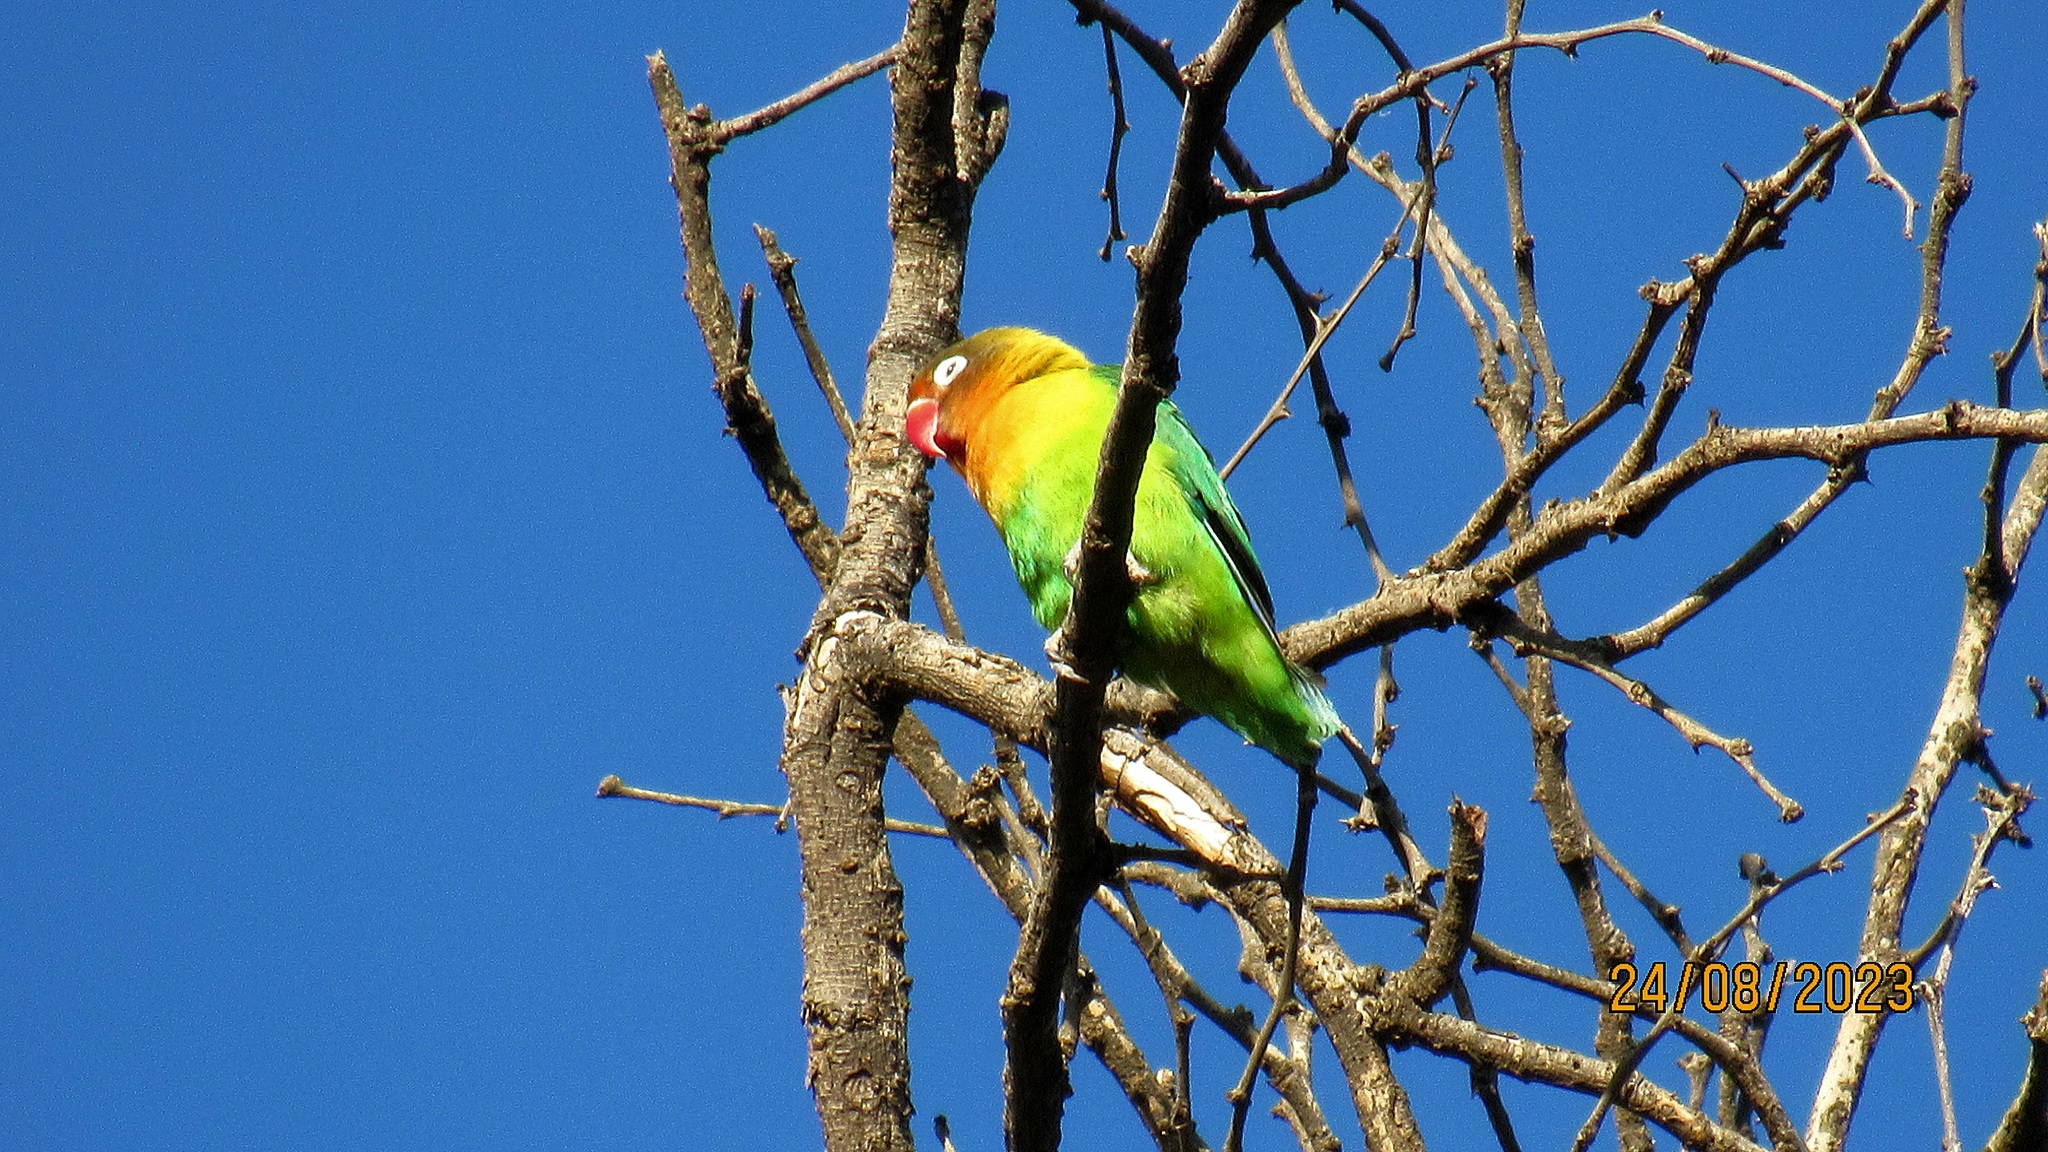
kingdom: Animalia
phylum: Chordata
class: Aves
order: Psittaciformes
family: Psittacidae
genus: Agapornis
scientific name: Agapornis fischeri
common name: Fischer's lovebird
